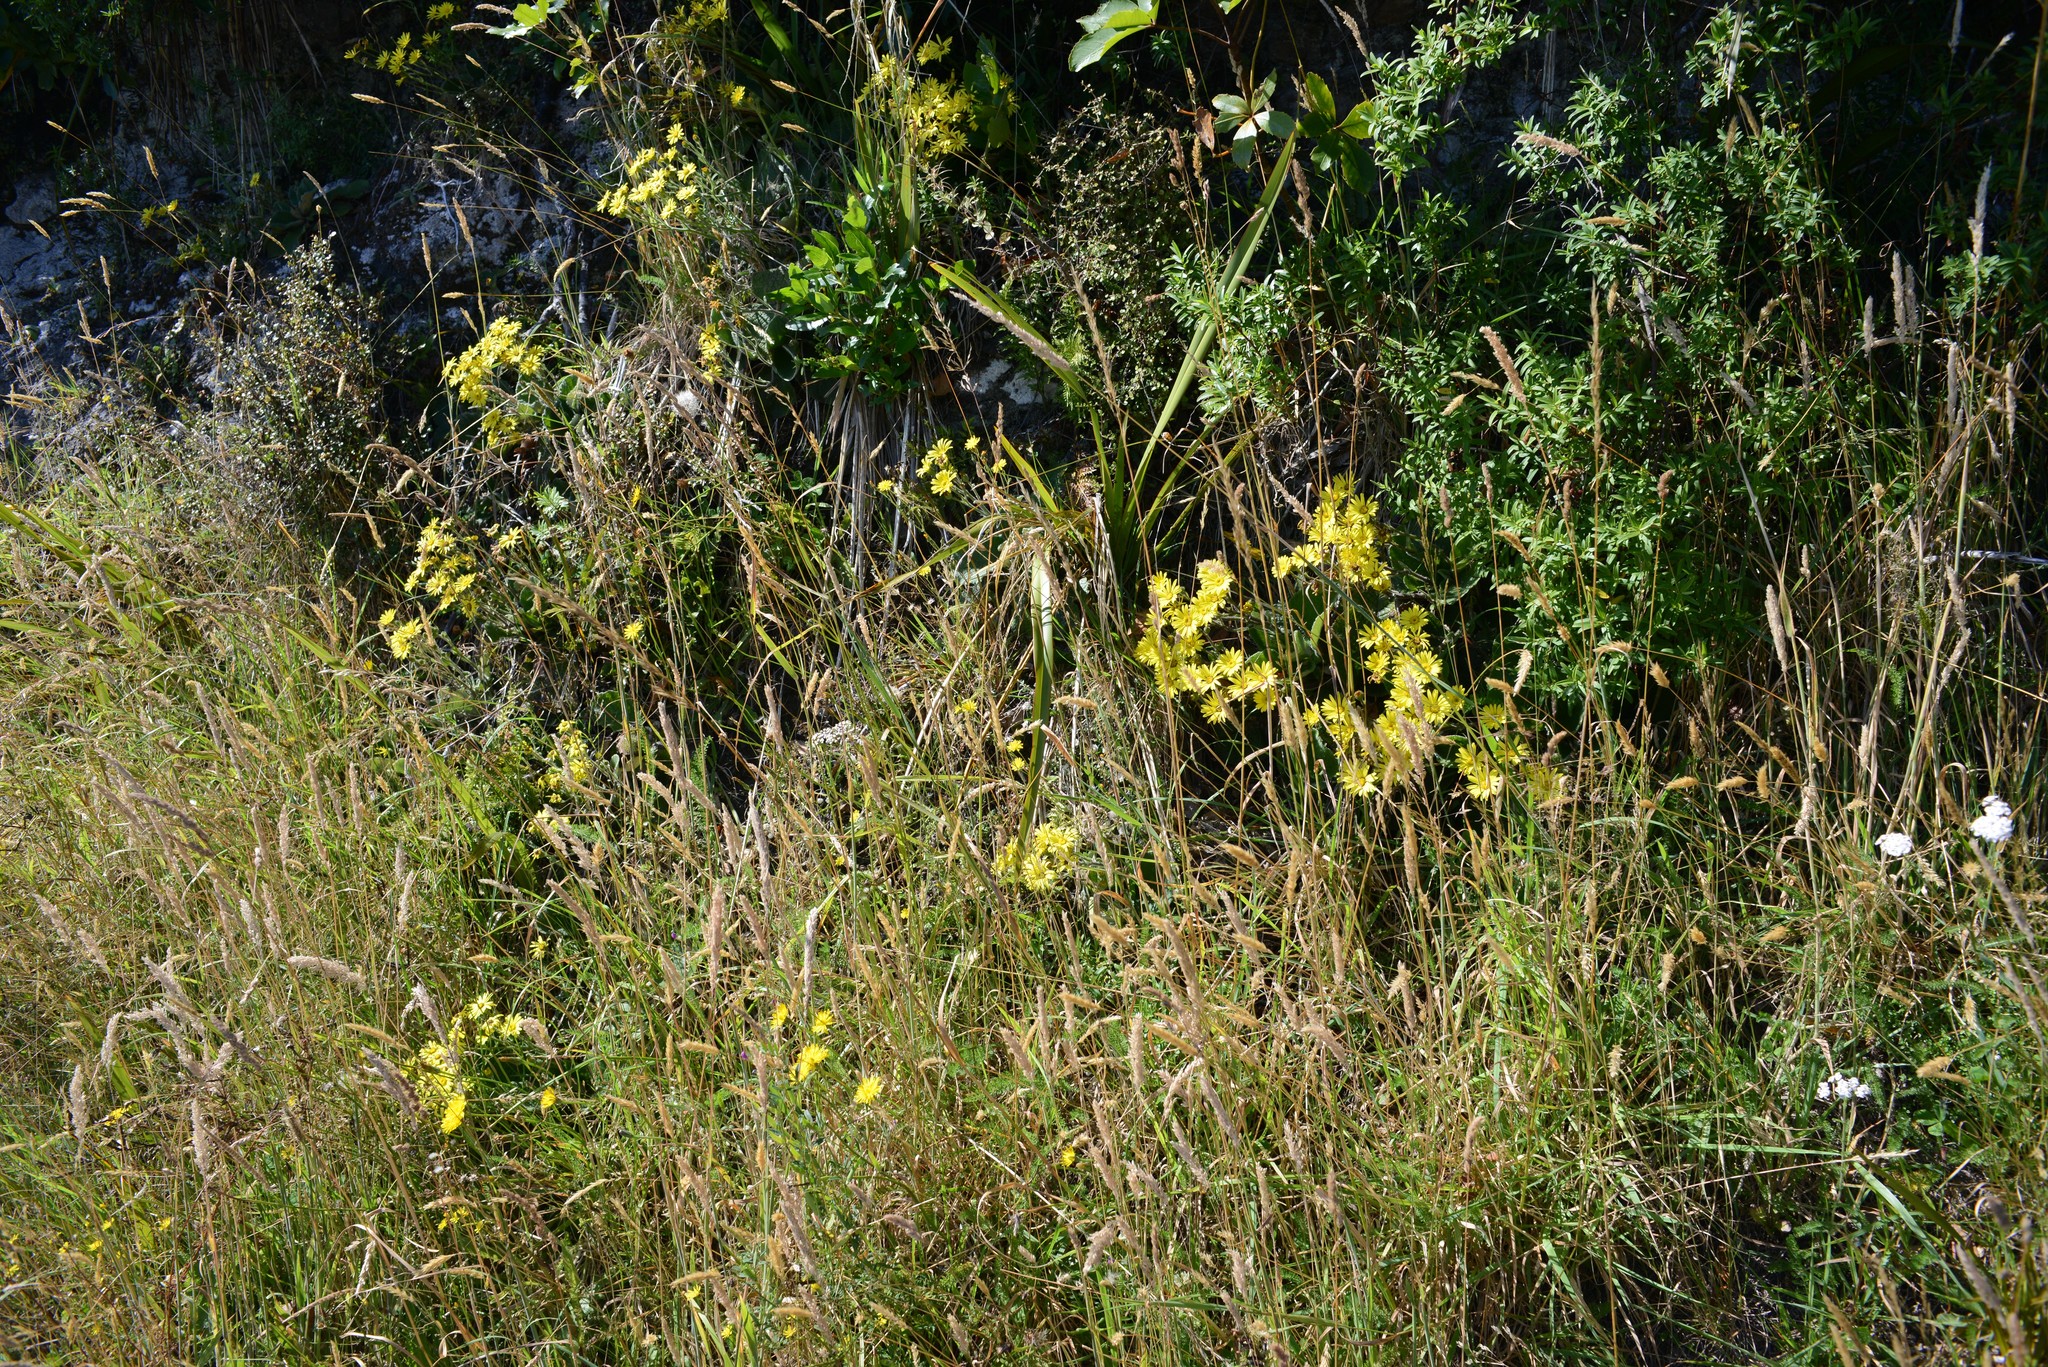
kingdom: Plantae
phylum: Tracheophyta
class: Magnoliopsida
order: Asterales
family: Asteraceae
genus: Brachyglottis
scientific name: Brachyglottis lagopus
